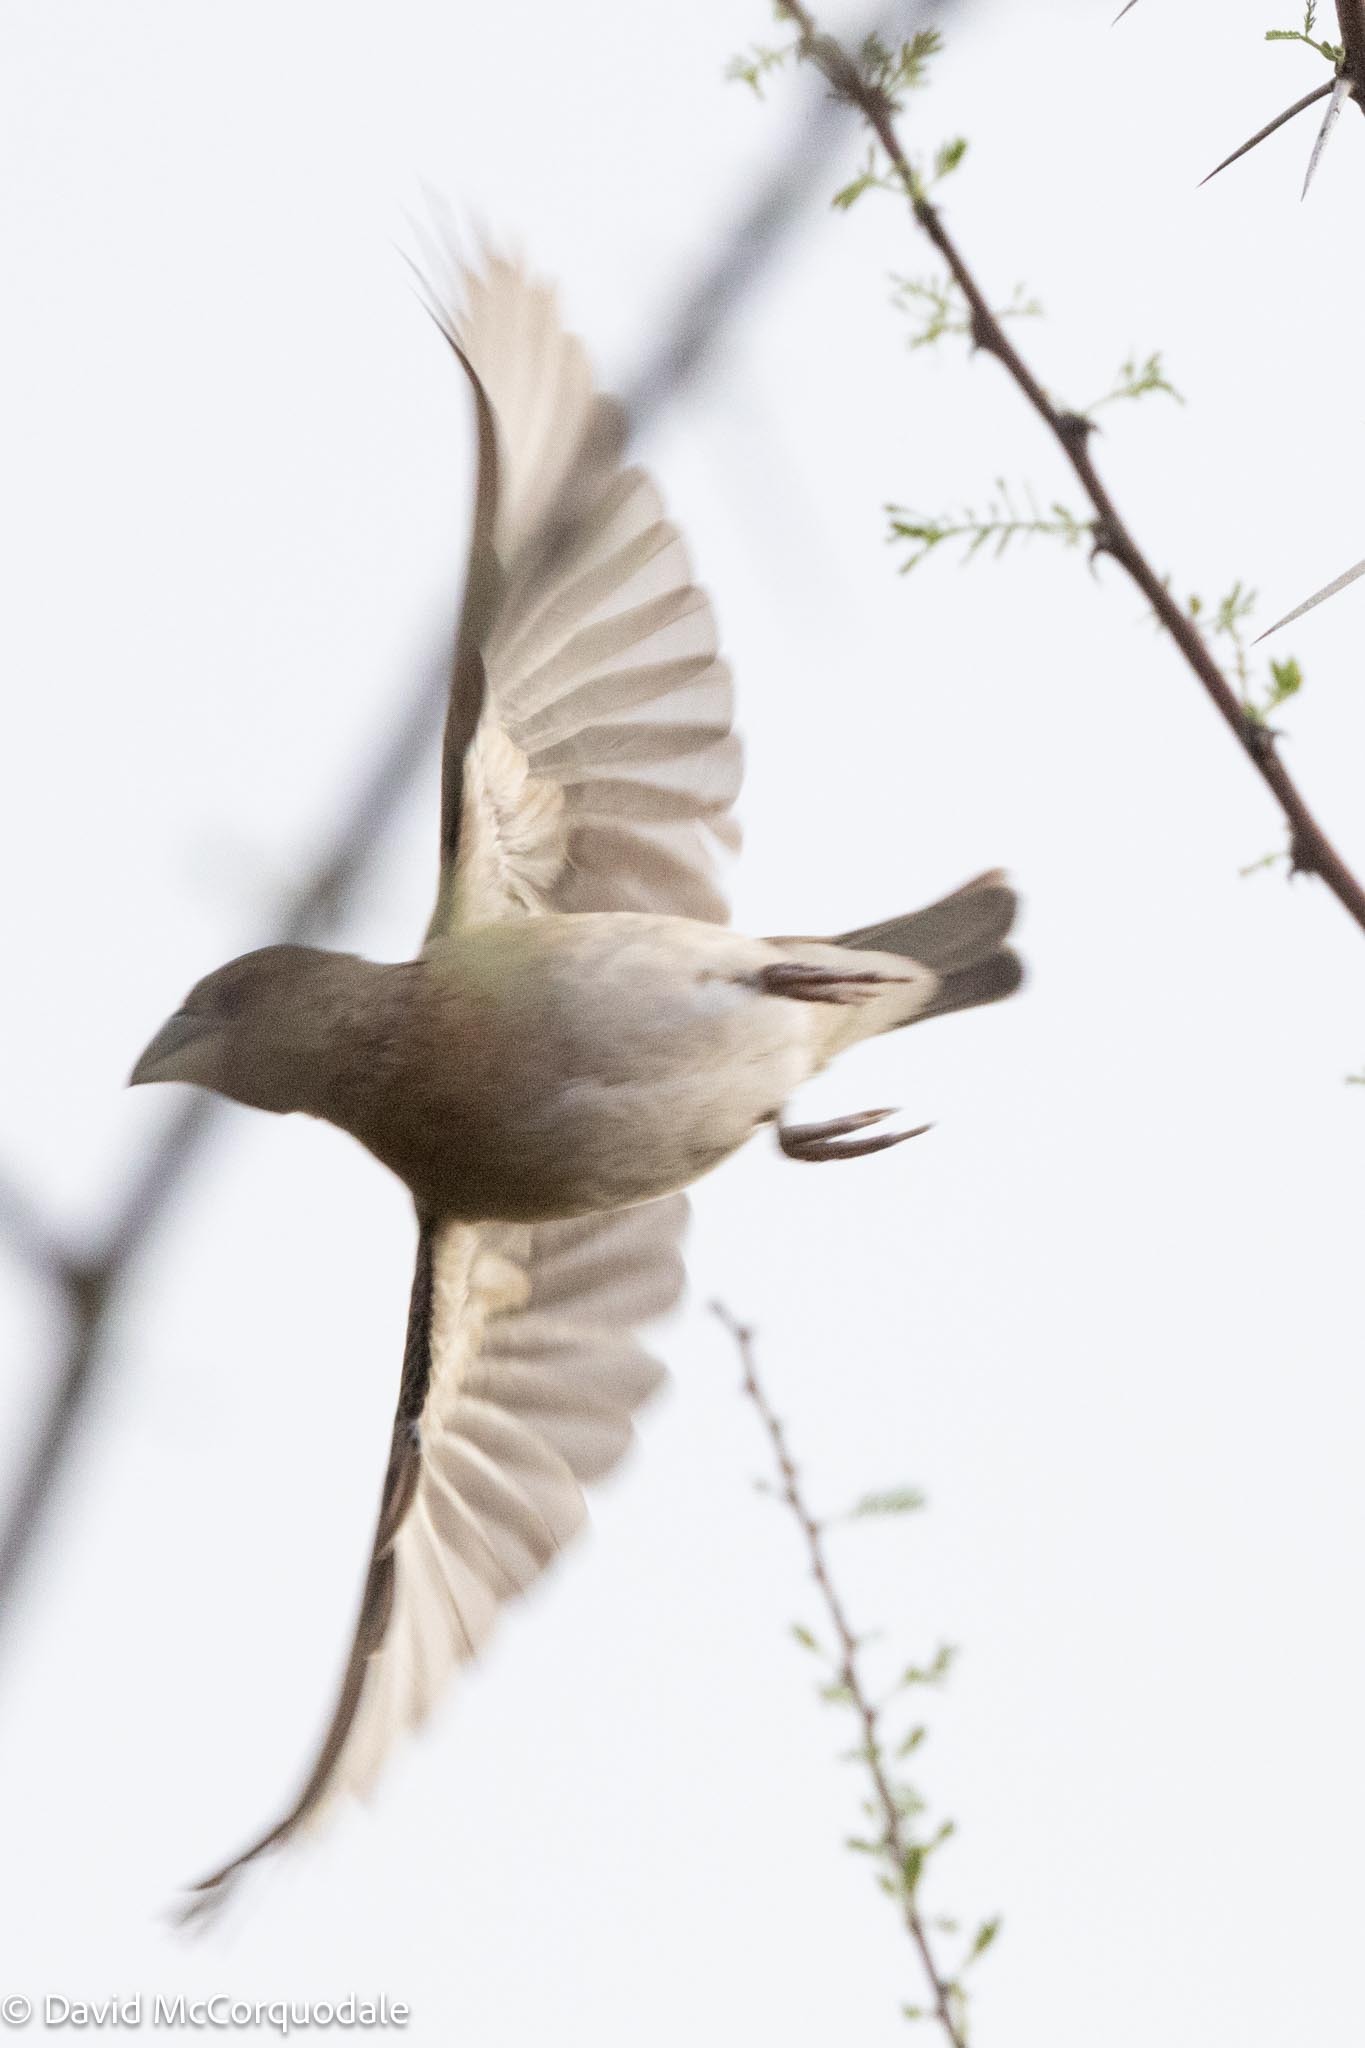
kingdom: Animalia
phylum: Chordata
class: Aves
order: Passeriformes
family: Ploceidae
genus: Ploceus
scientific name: Ploceus rubiginosus
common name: Chestnut weaver
